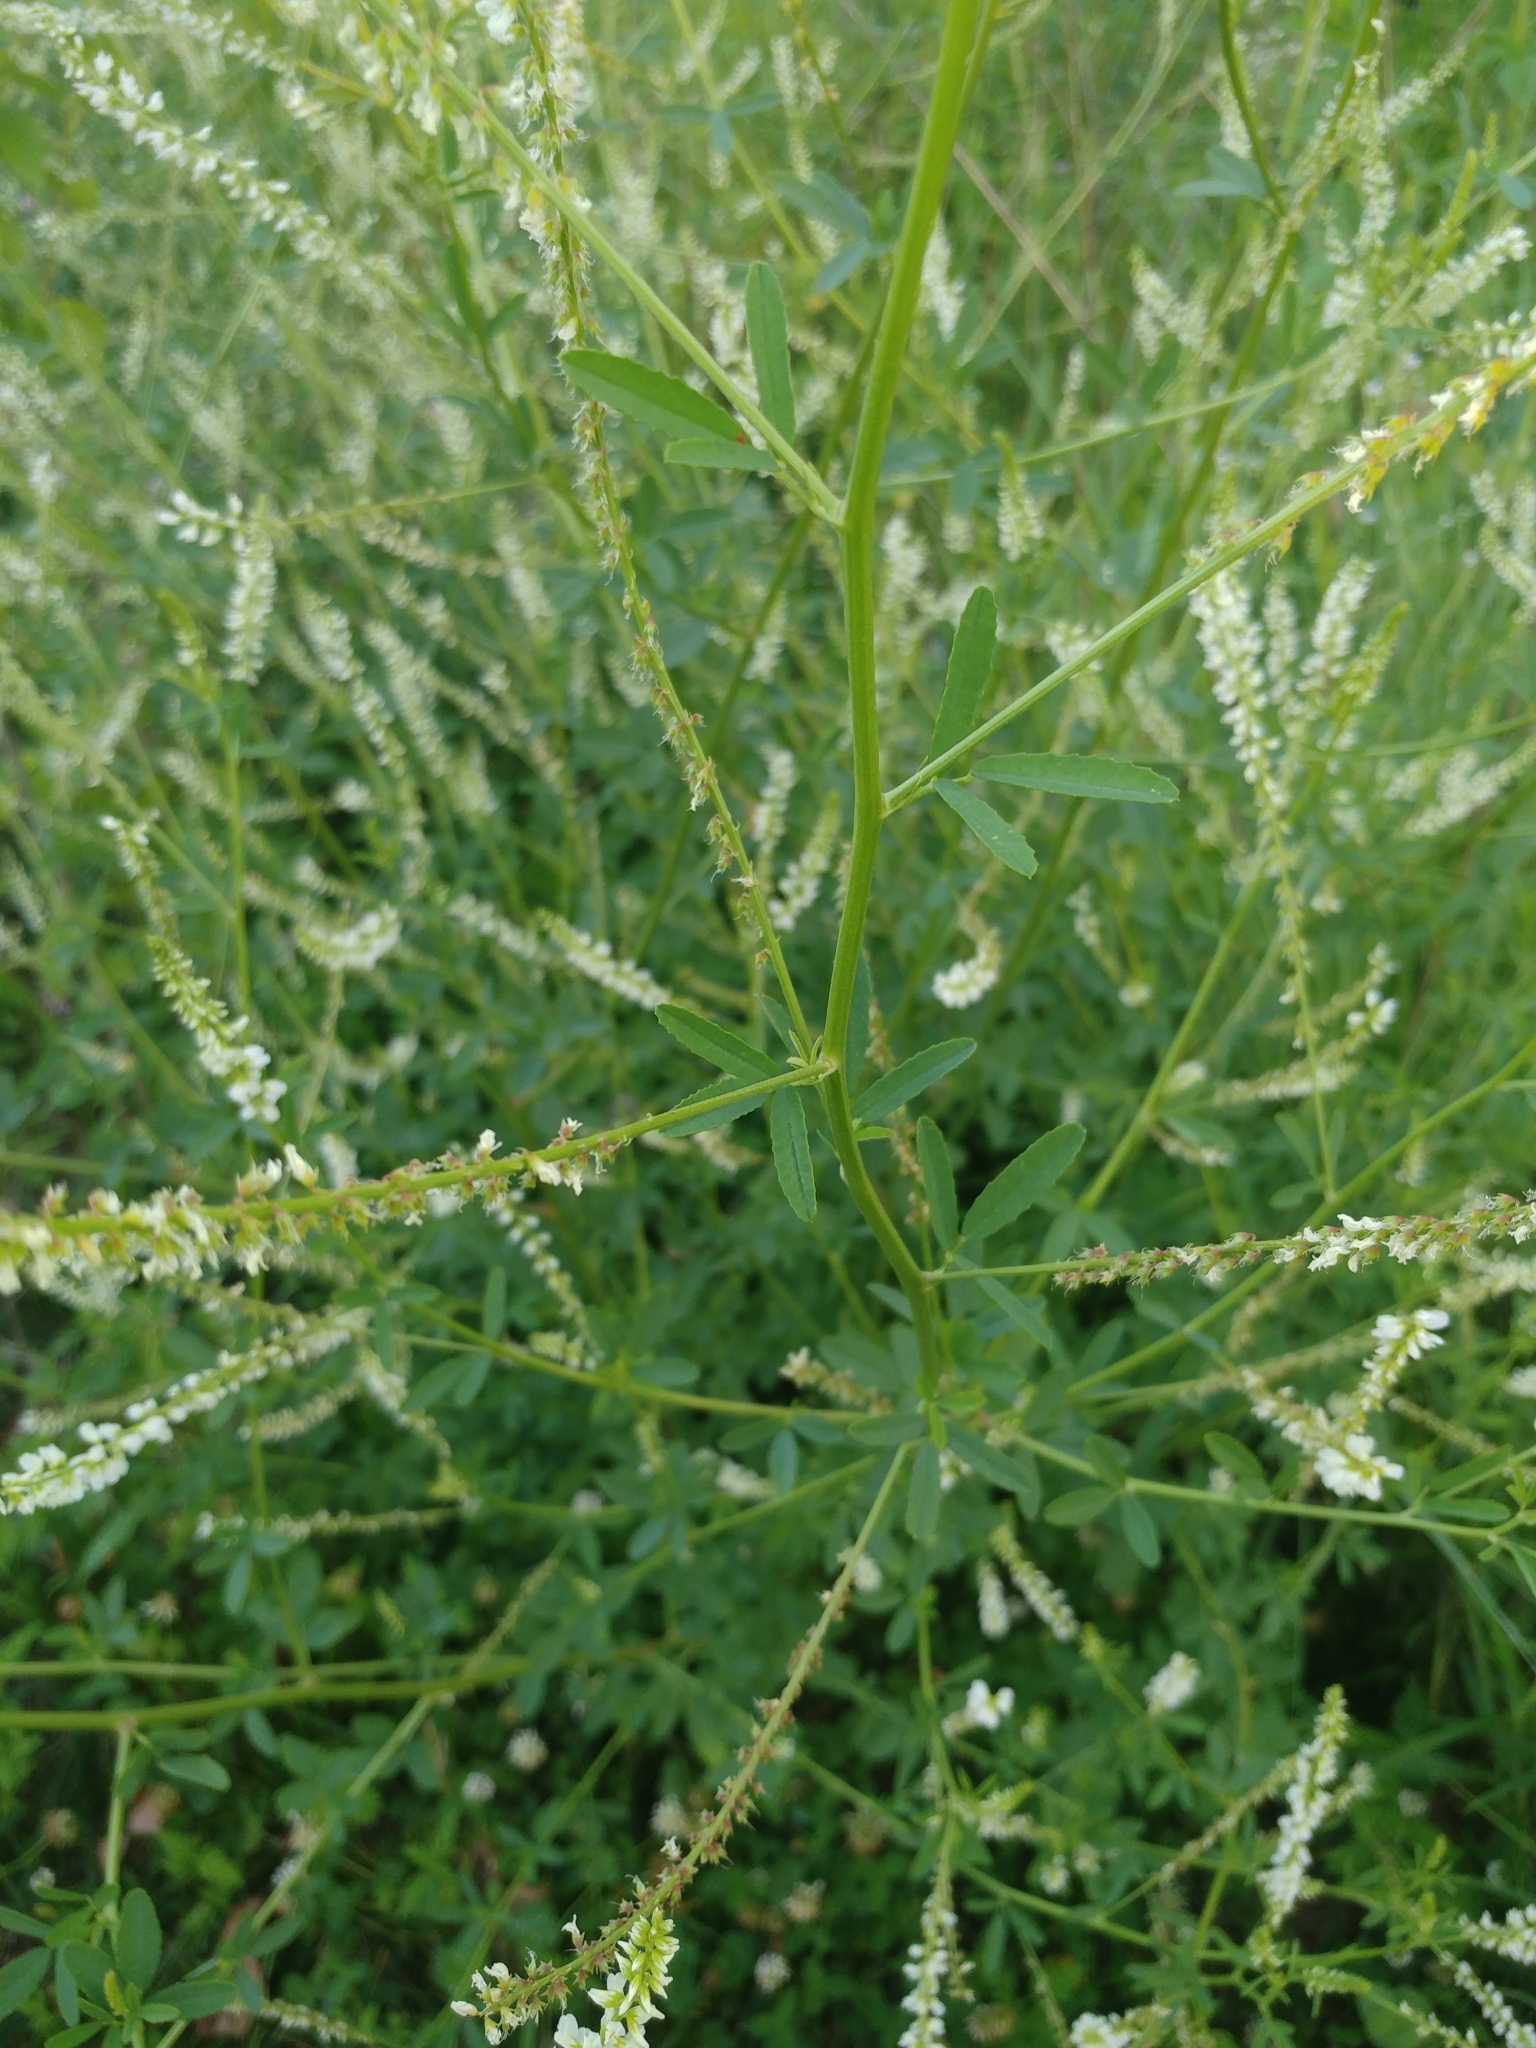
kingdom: Plantae
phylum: Tracheophyta
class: Magnoliopsida
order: Fabales
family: Fabaceae
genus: Melilotus
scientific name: Melilotus albus
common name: White melilot
